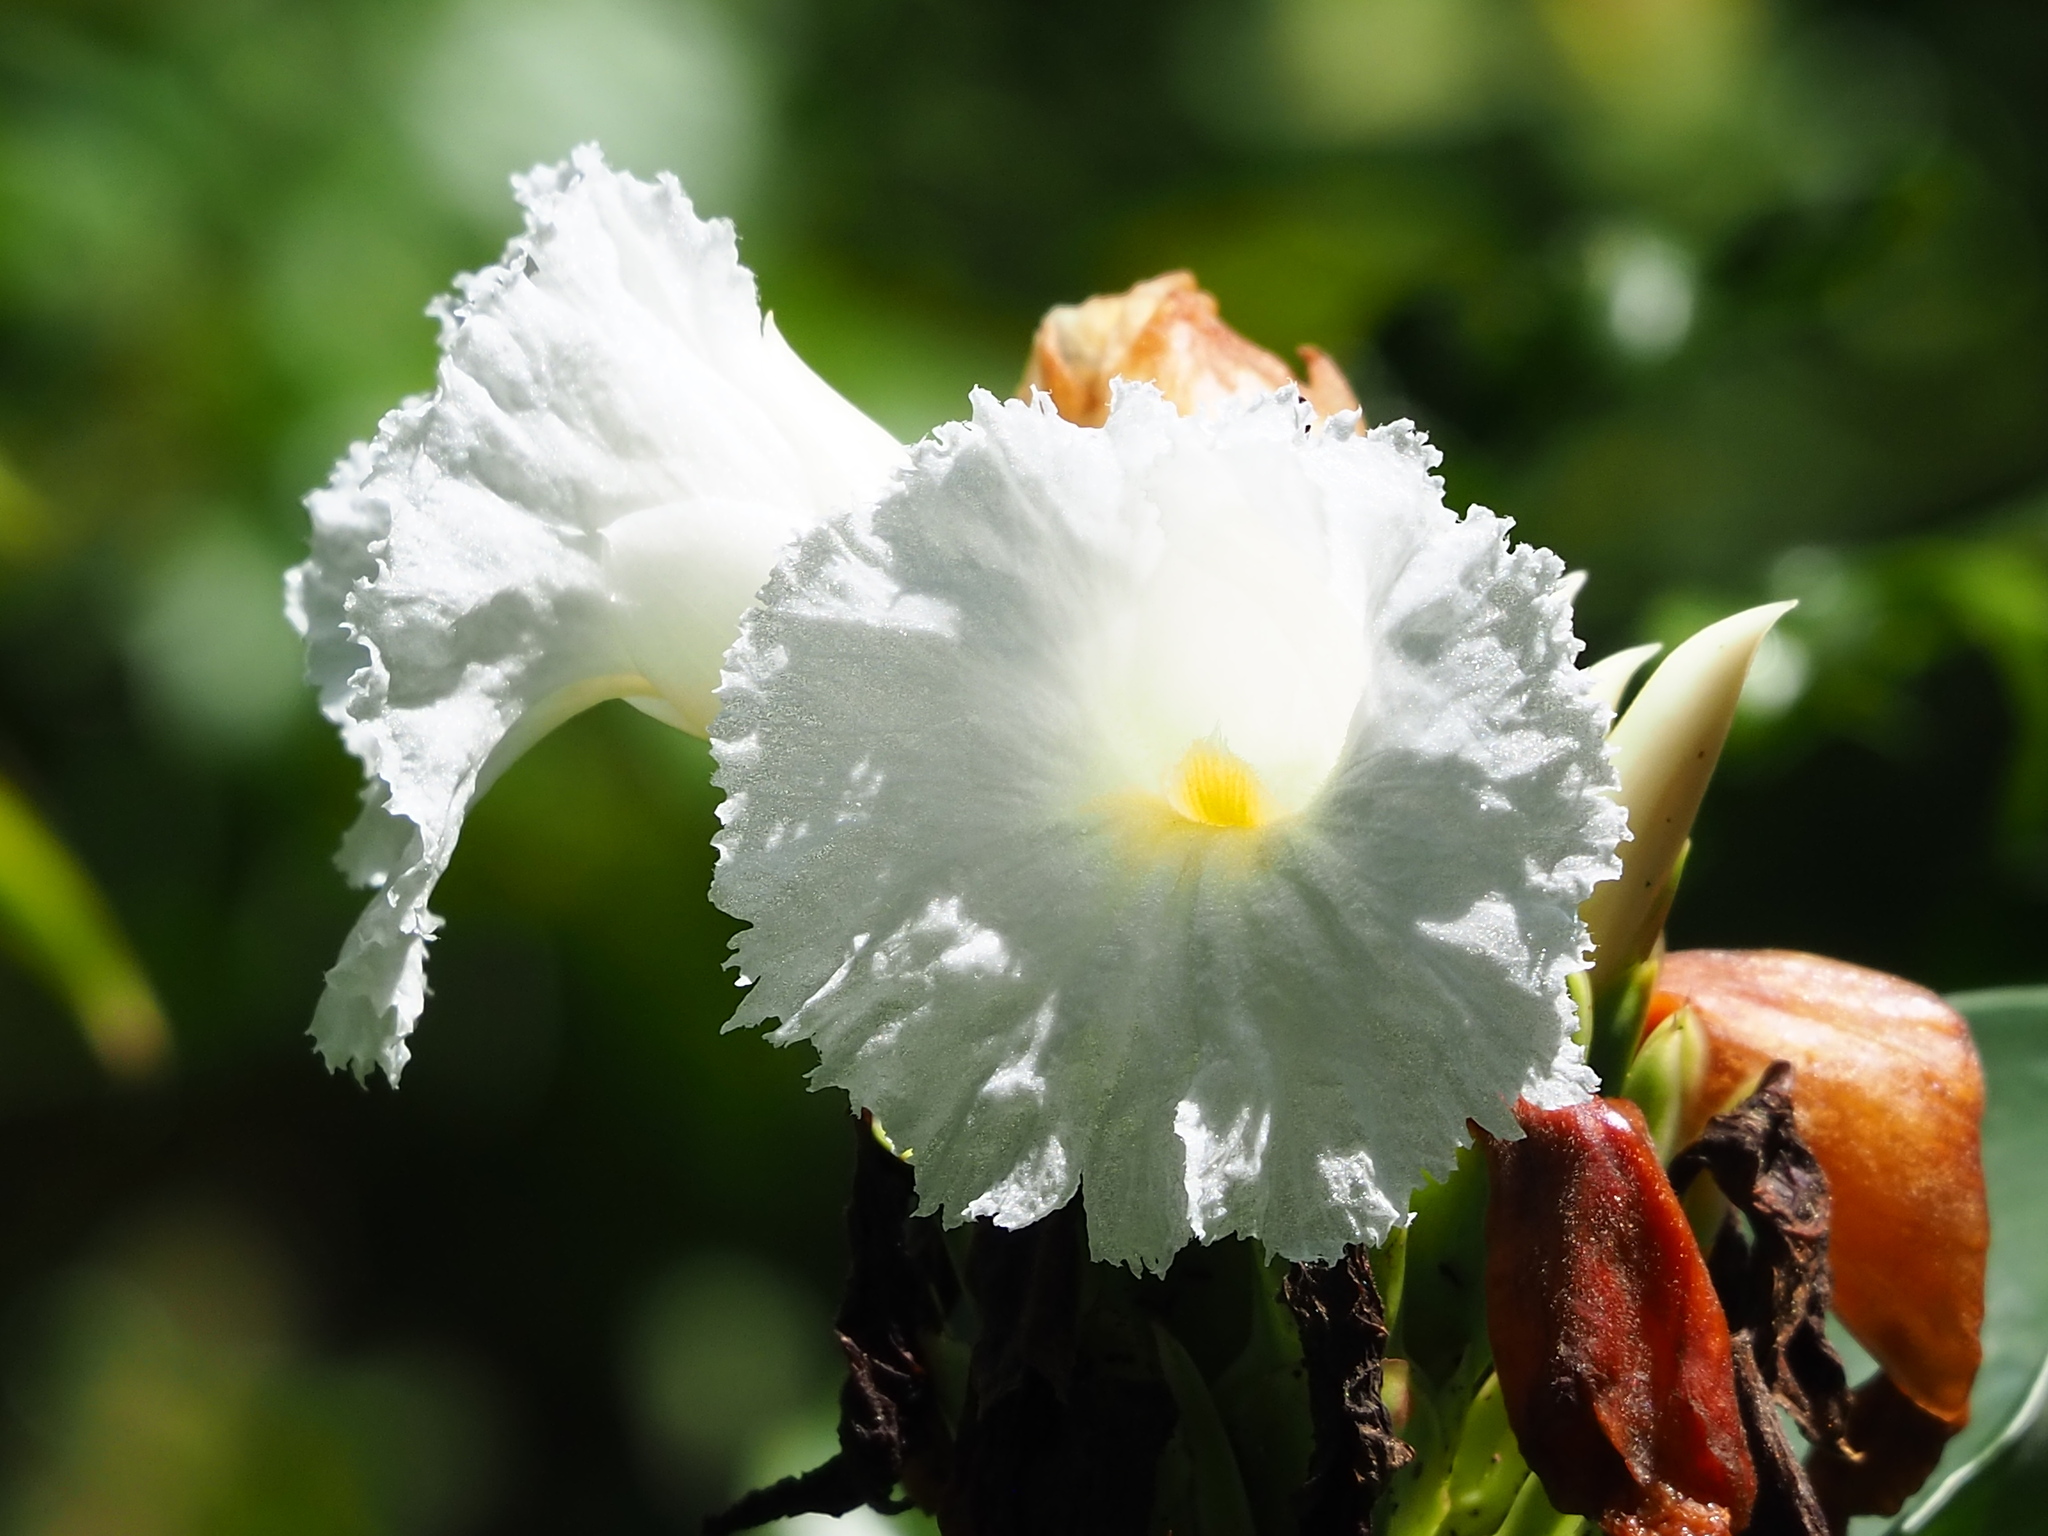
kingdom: Plantae
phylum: Tracheophyta
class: Liliopsida
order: Zingiberales
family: Costaceae
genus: Hellenia
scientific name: Hellenia speciosa
